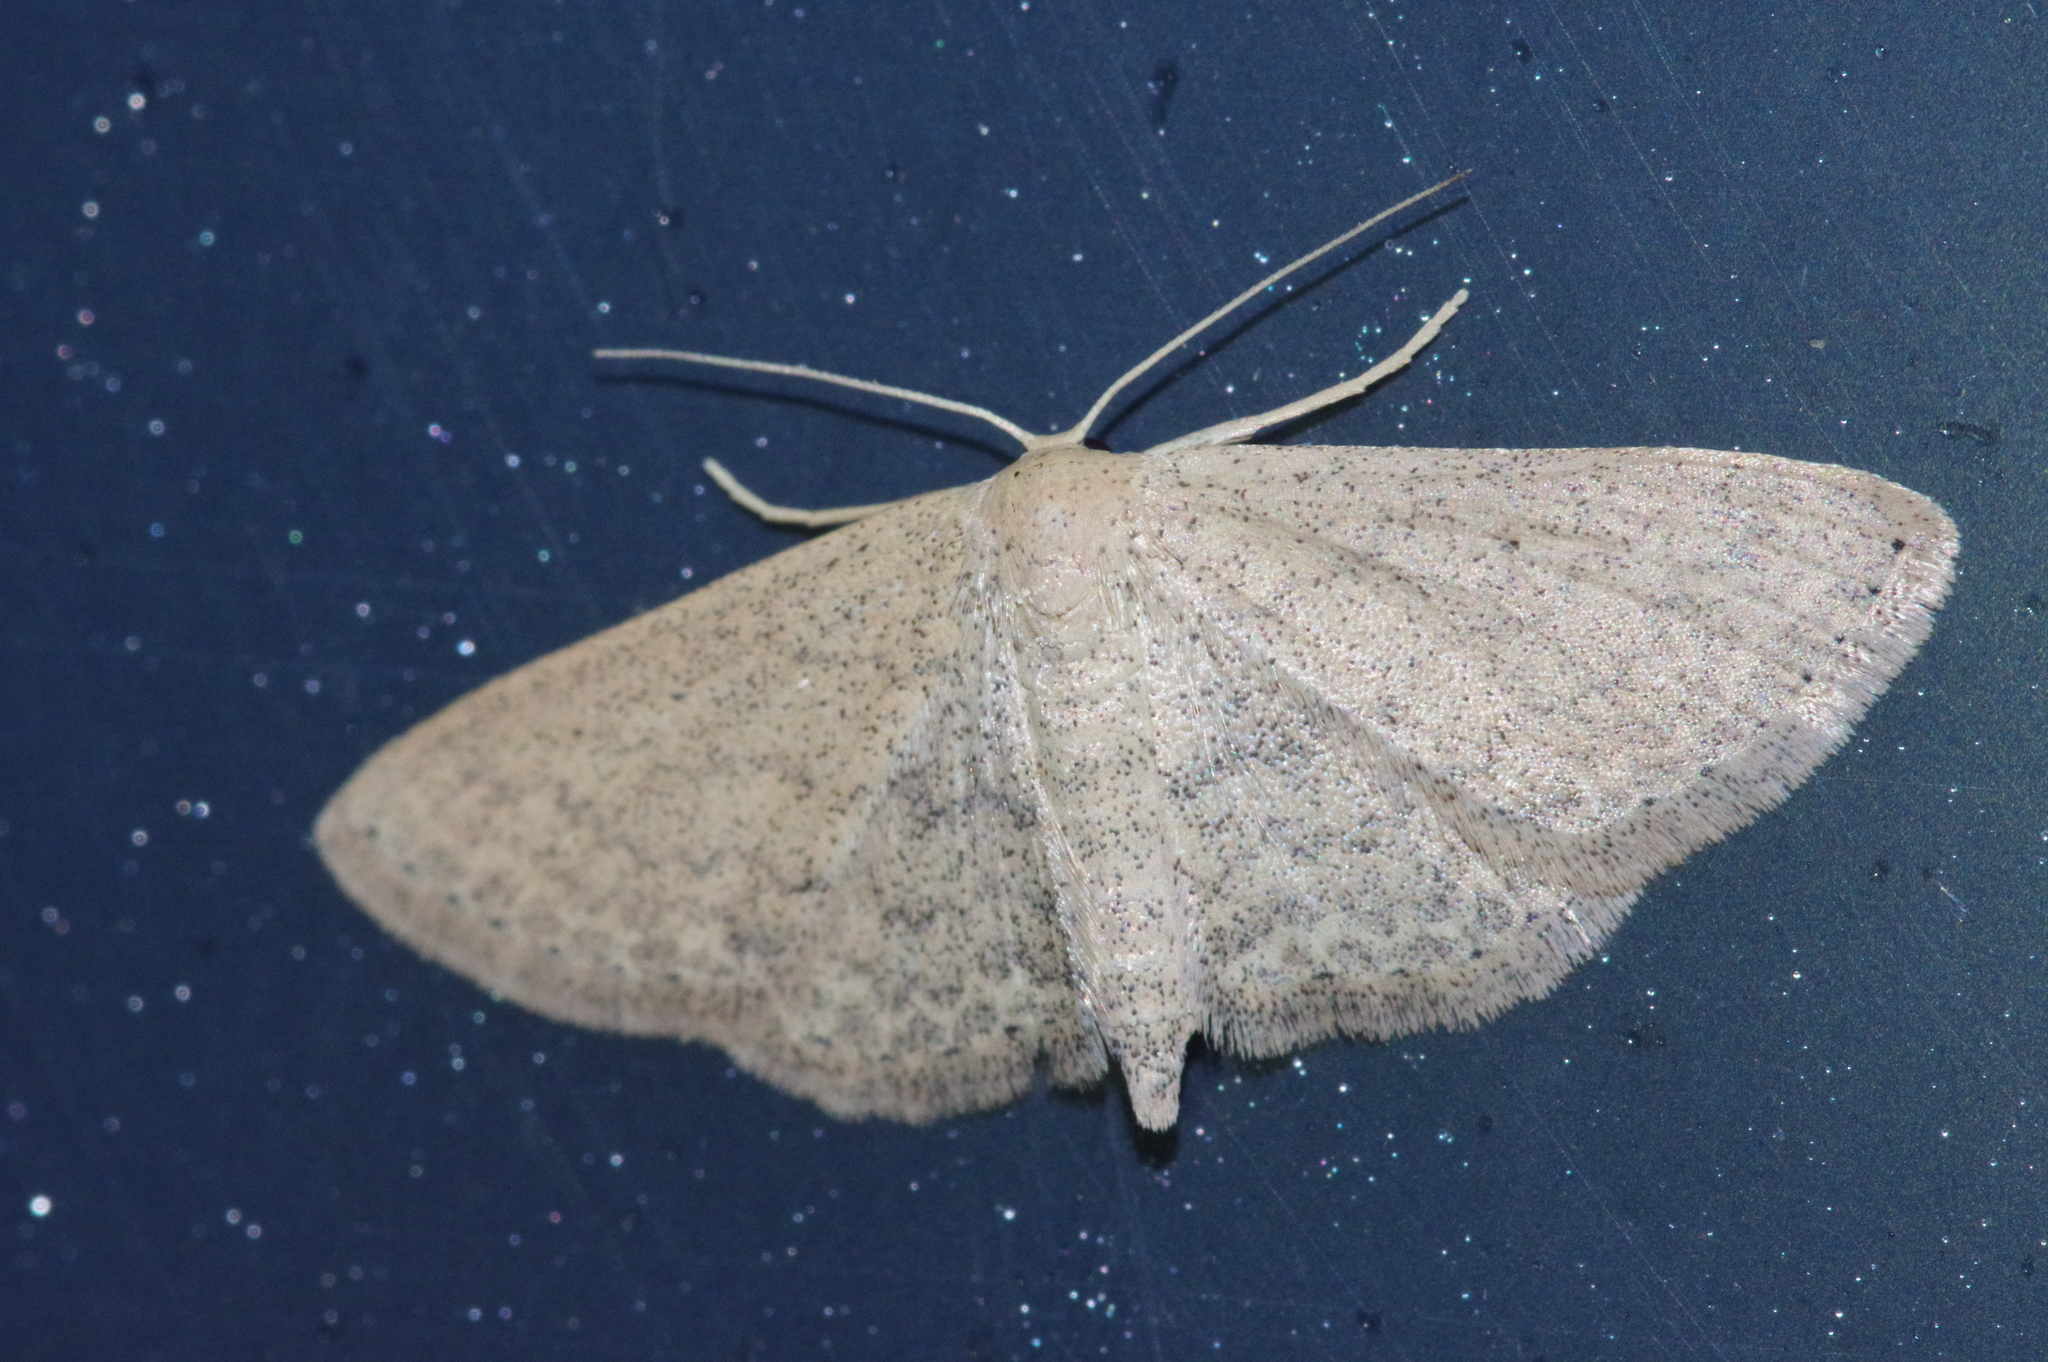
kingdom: Animalia
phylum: Arthropoda
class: Insecta
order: Lepidoptera
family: Geometridae
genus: Scopula
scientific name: Scopula personata
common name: Cankerworm
